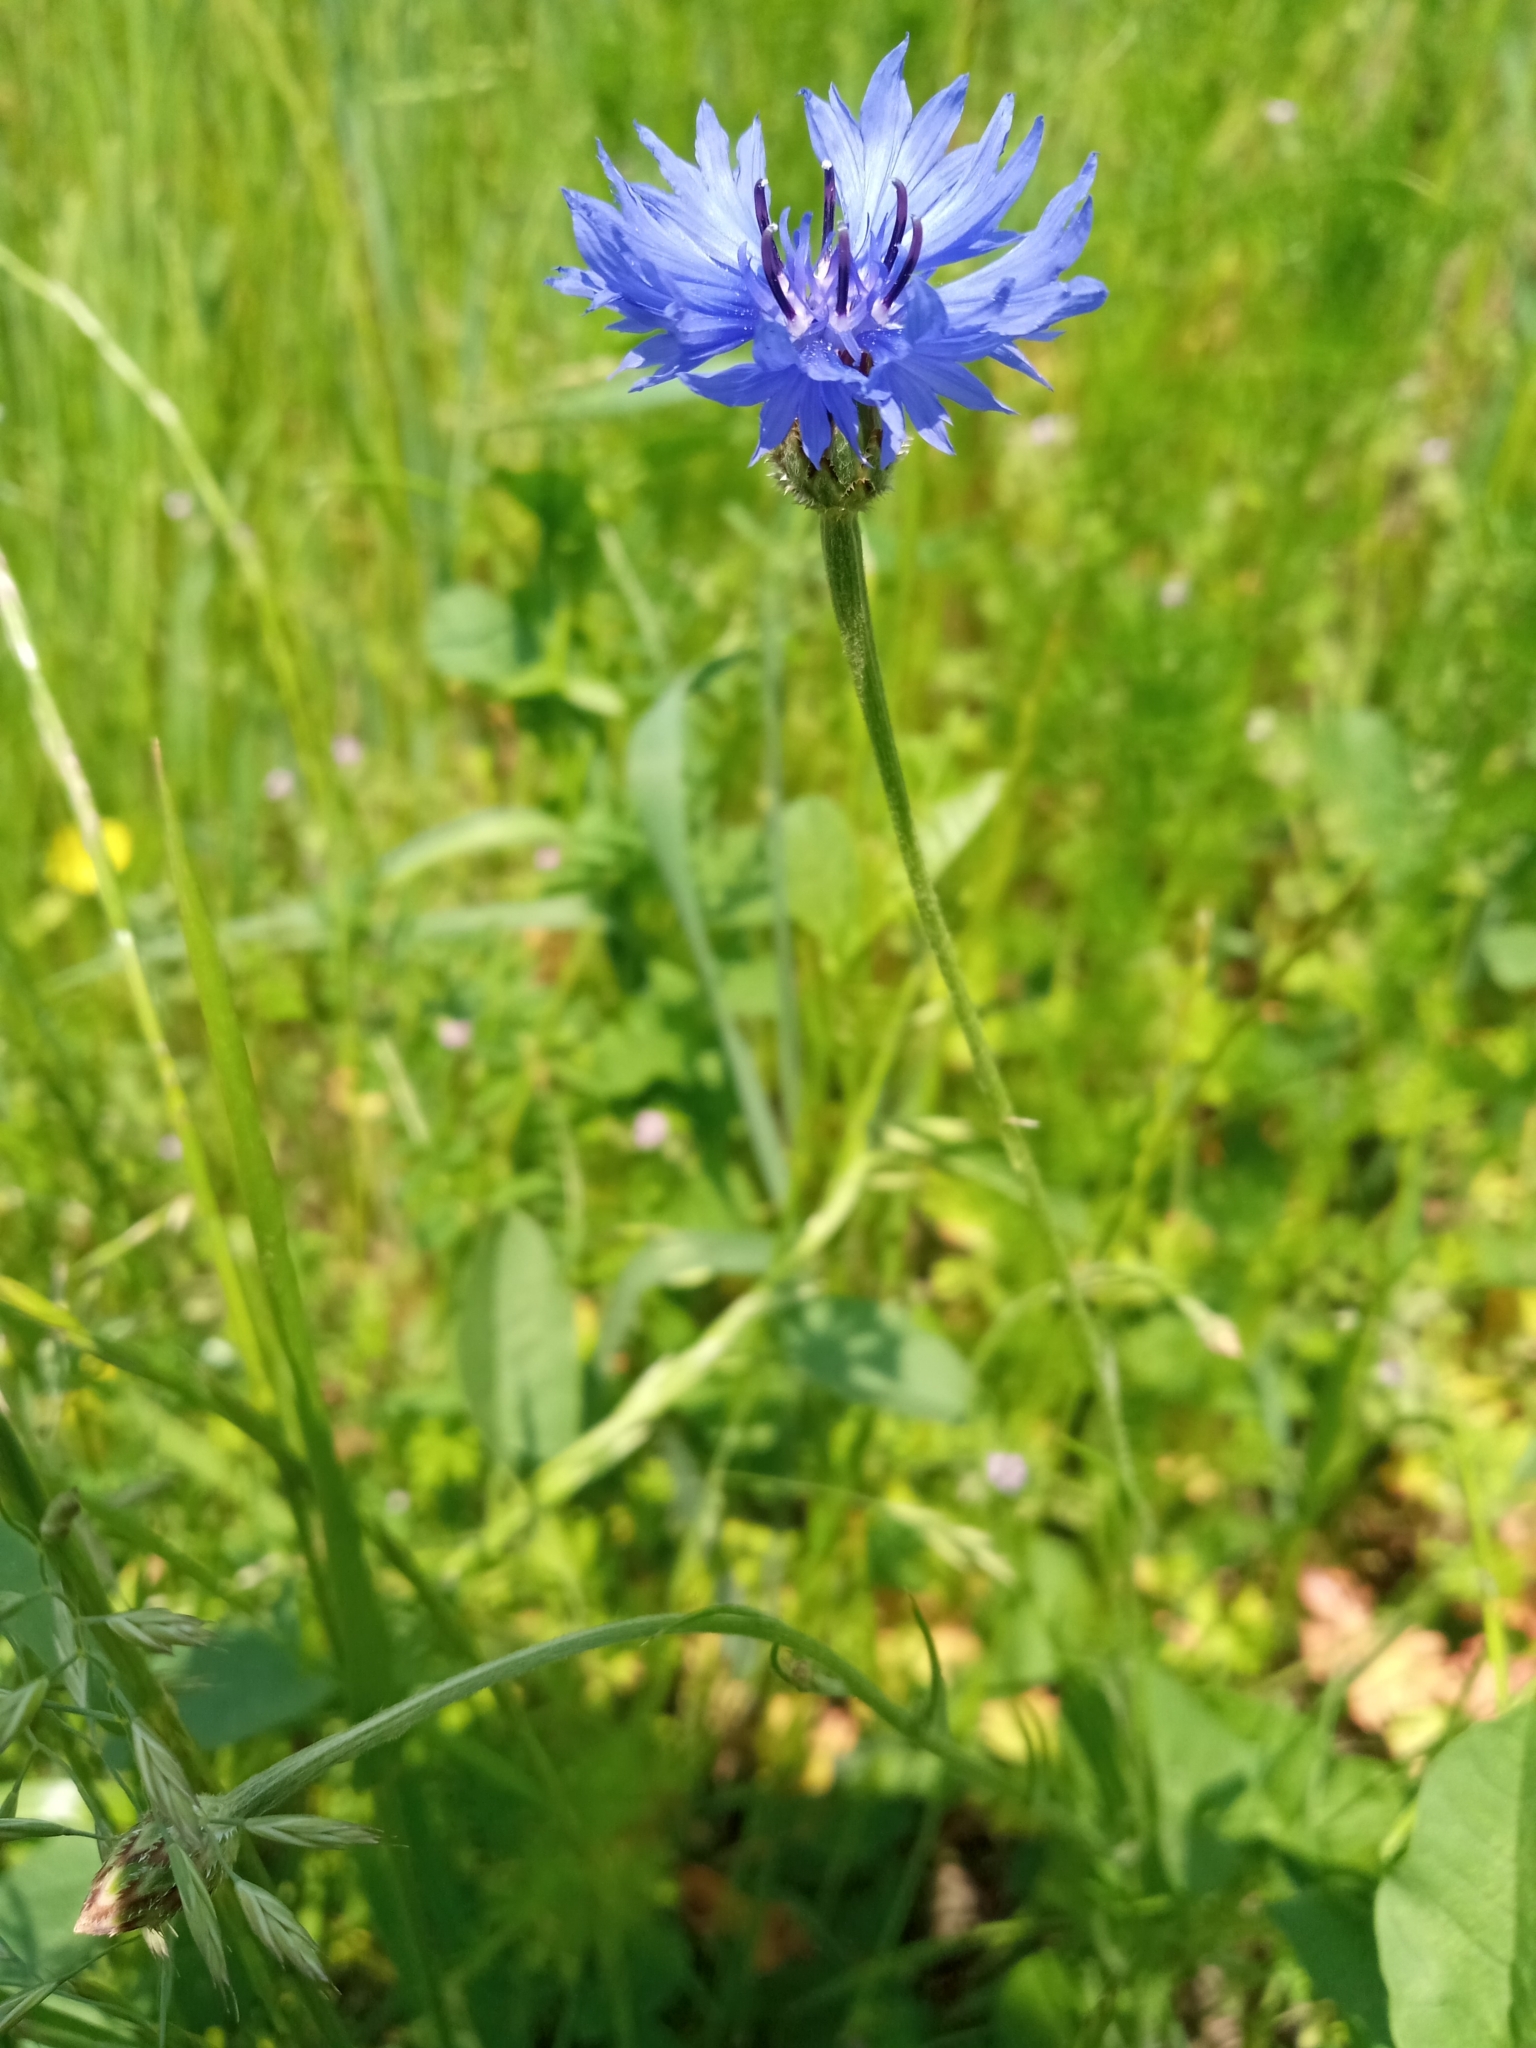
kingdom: Plantae
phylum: Tracheophyta
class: Magnoliopsida
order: Asterales
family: Asteraceae
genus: Centaurea
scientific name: Centaurea cyanus
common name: Cornflower
